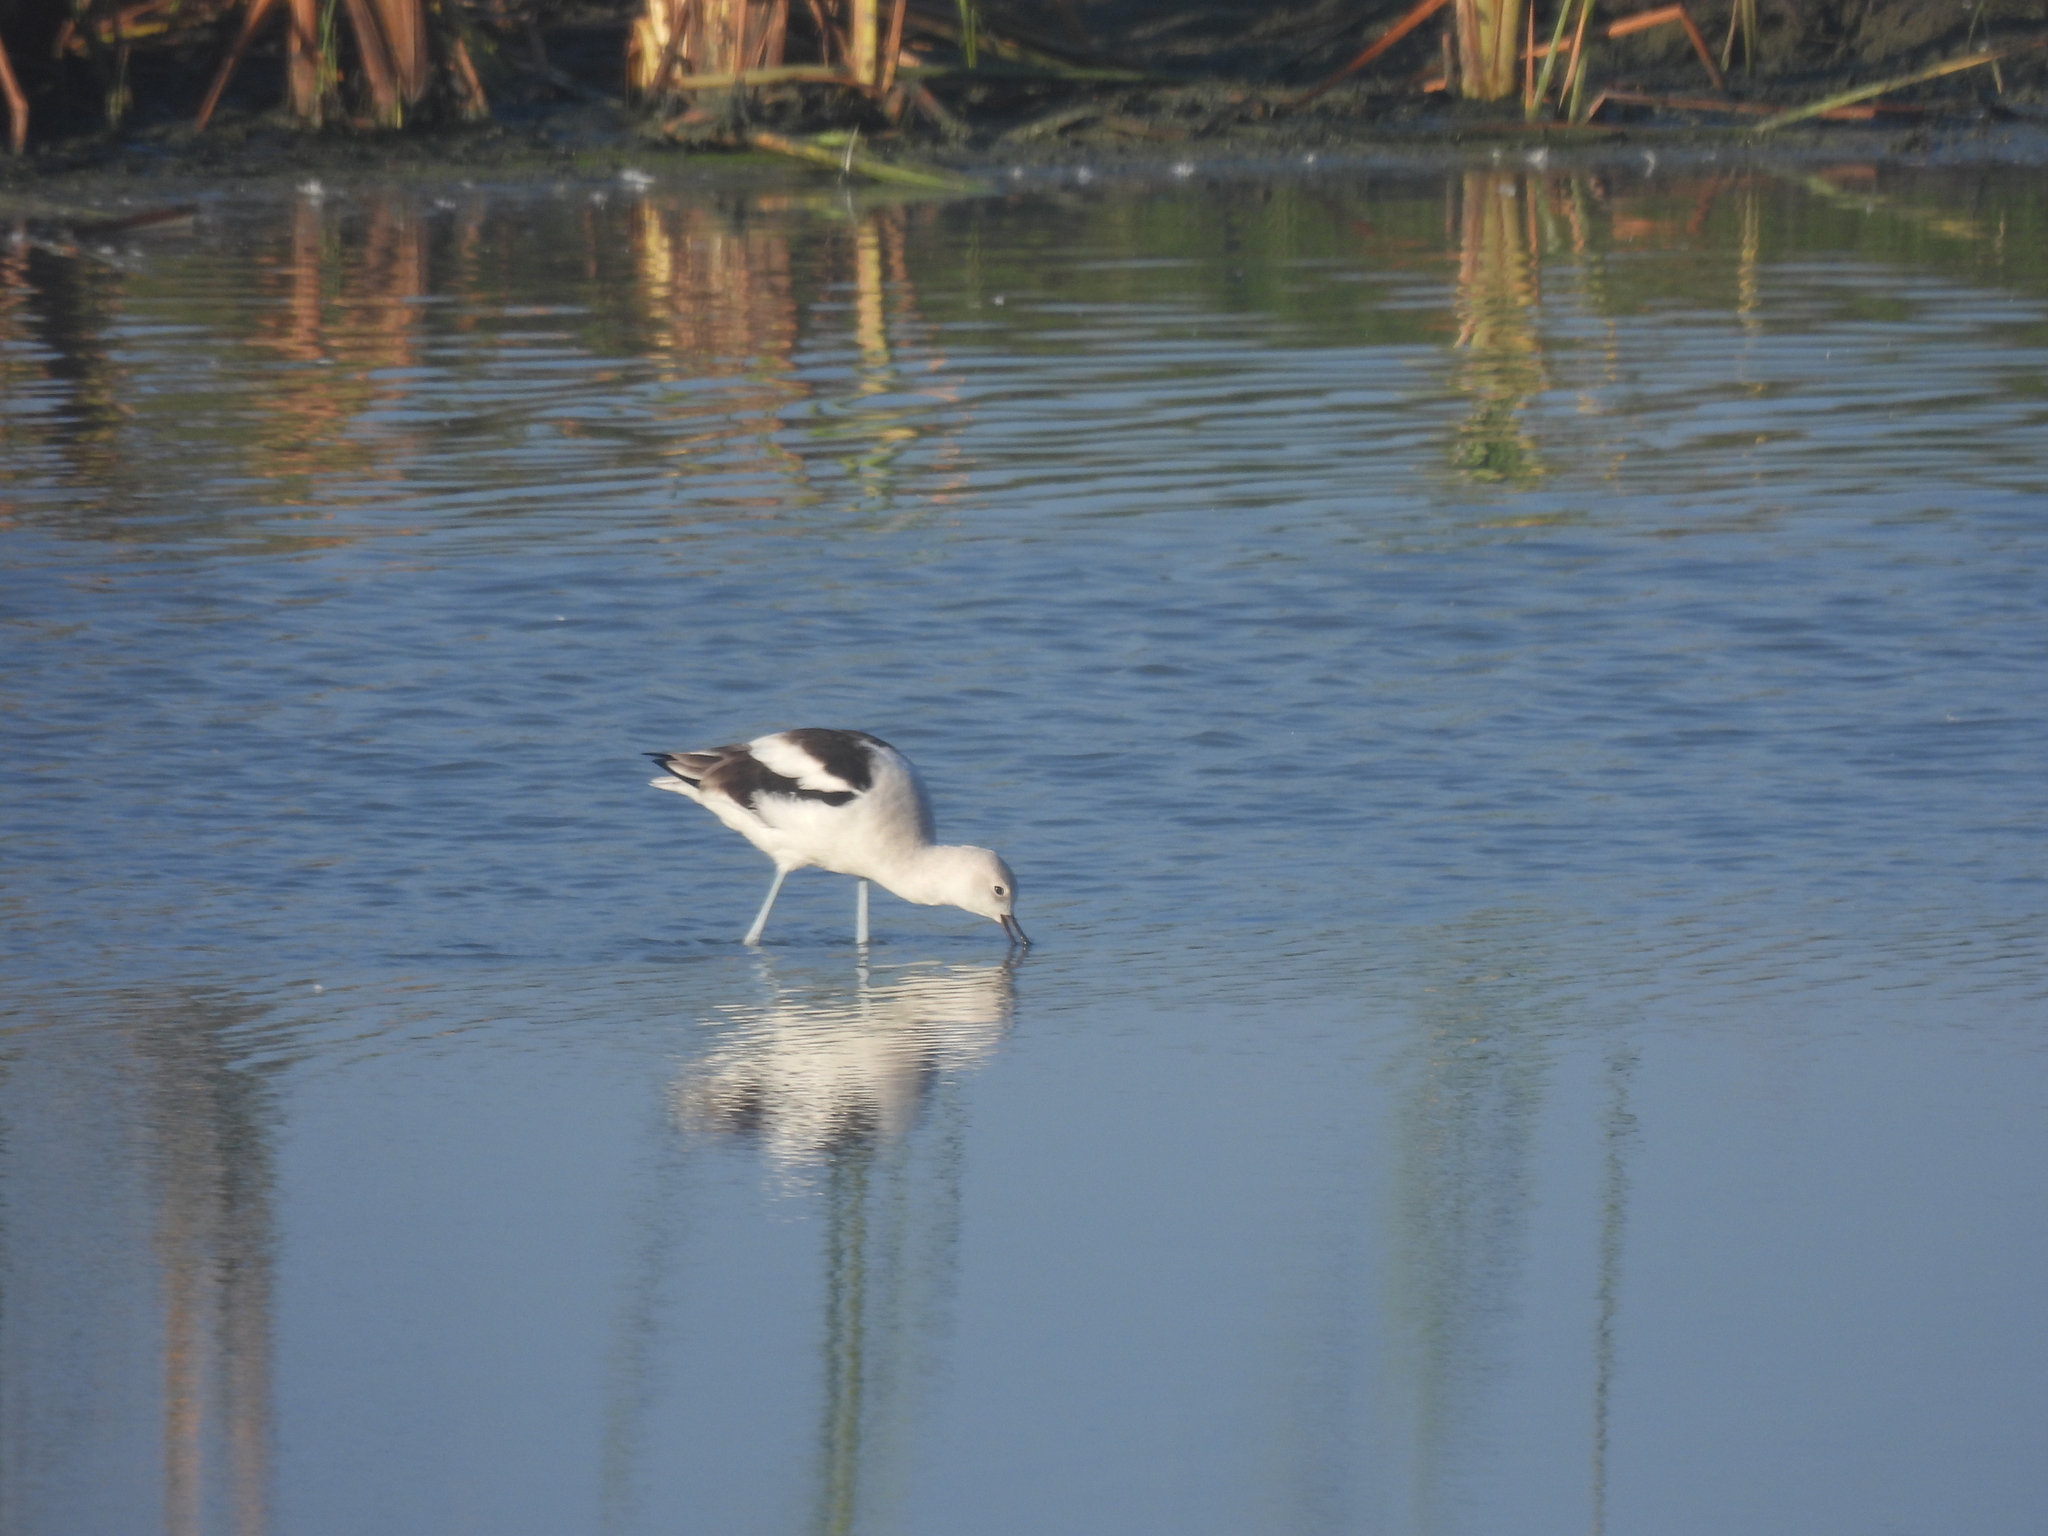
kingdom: Animalia
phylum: Chordata
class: Aves
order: Charadriiformes
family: Recurvirostridae
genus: Recurvirostra
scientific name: Recurvirostra americana
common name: American avocet
